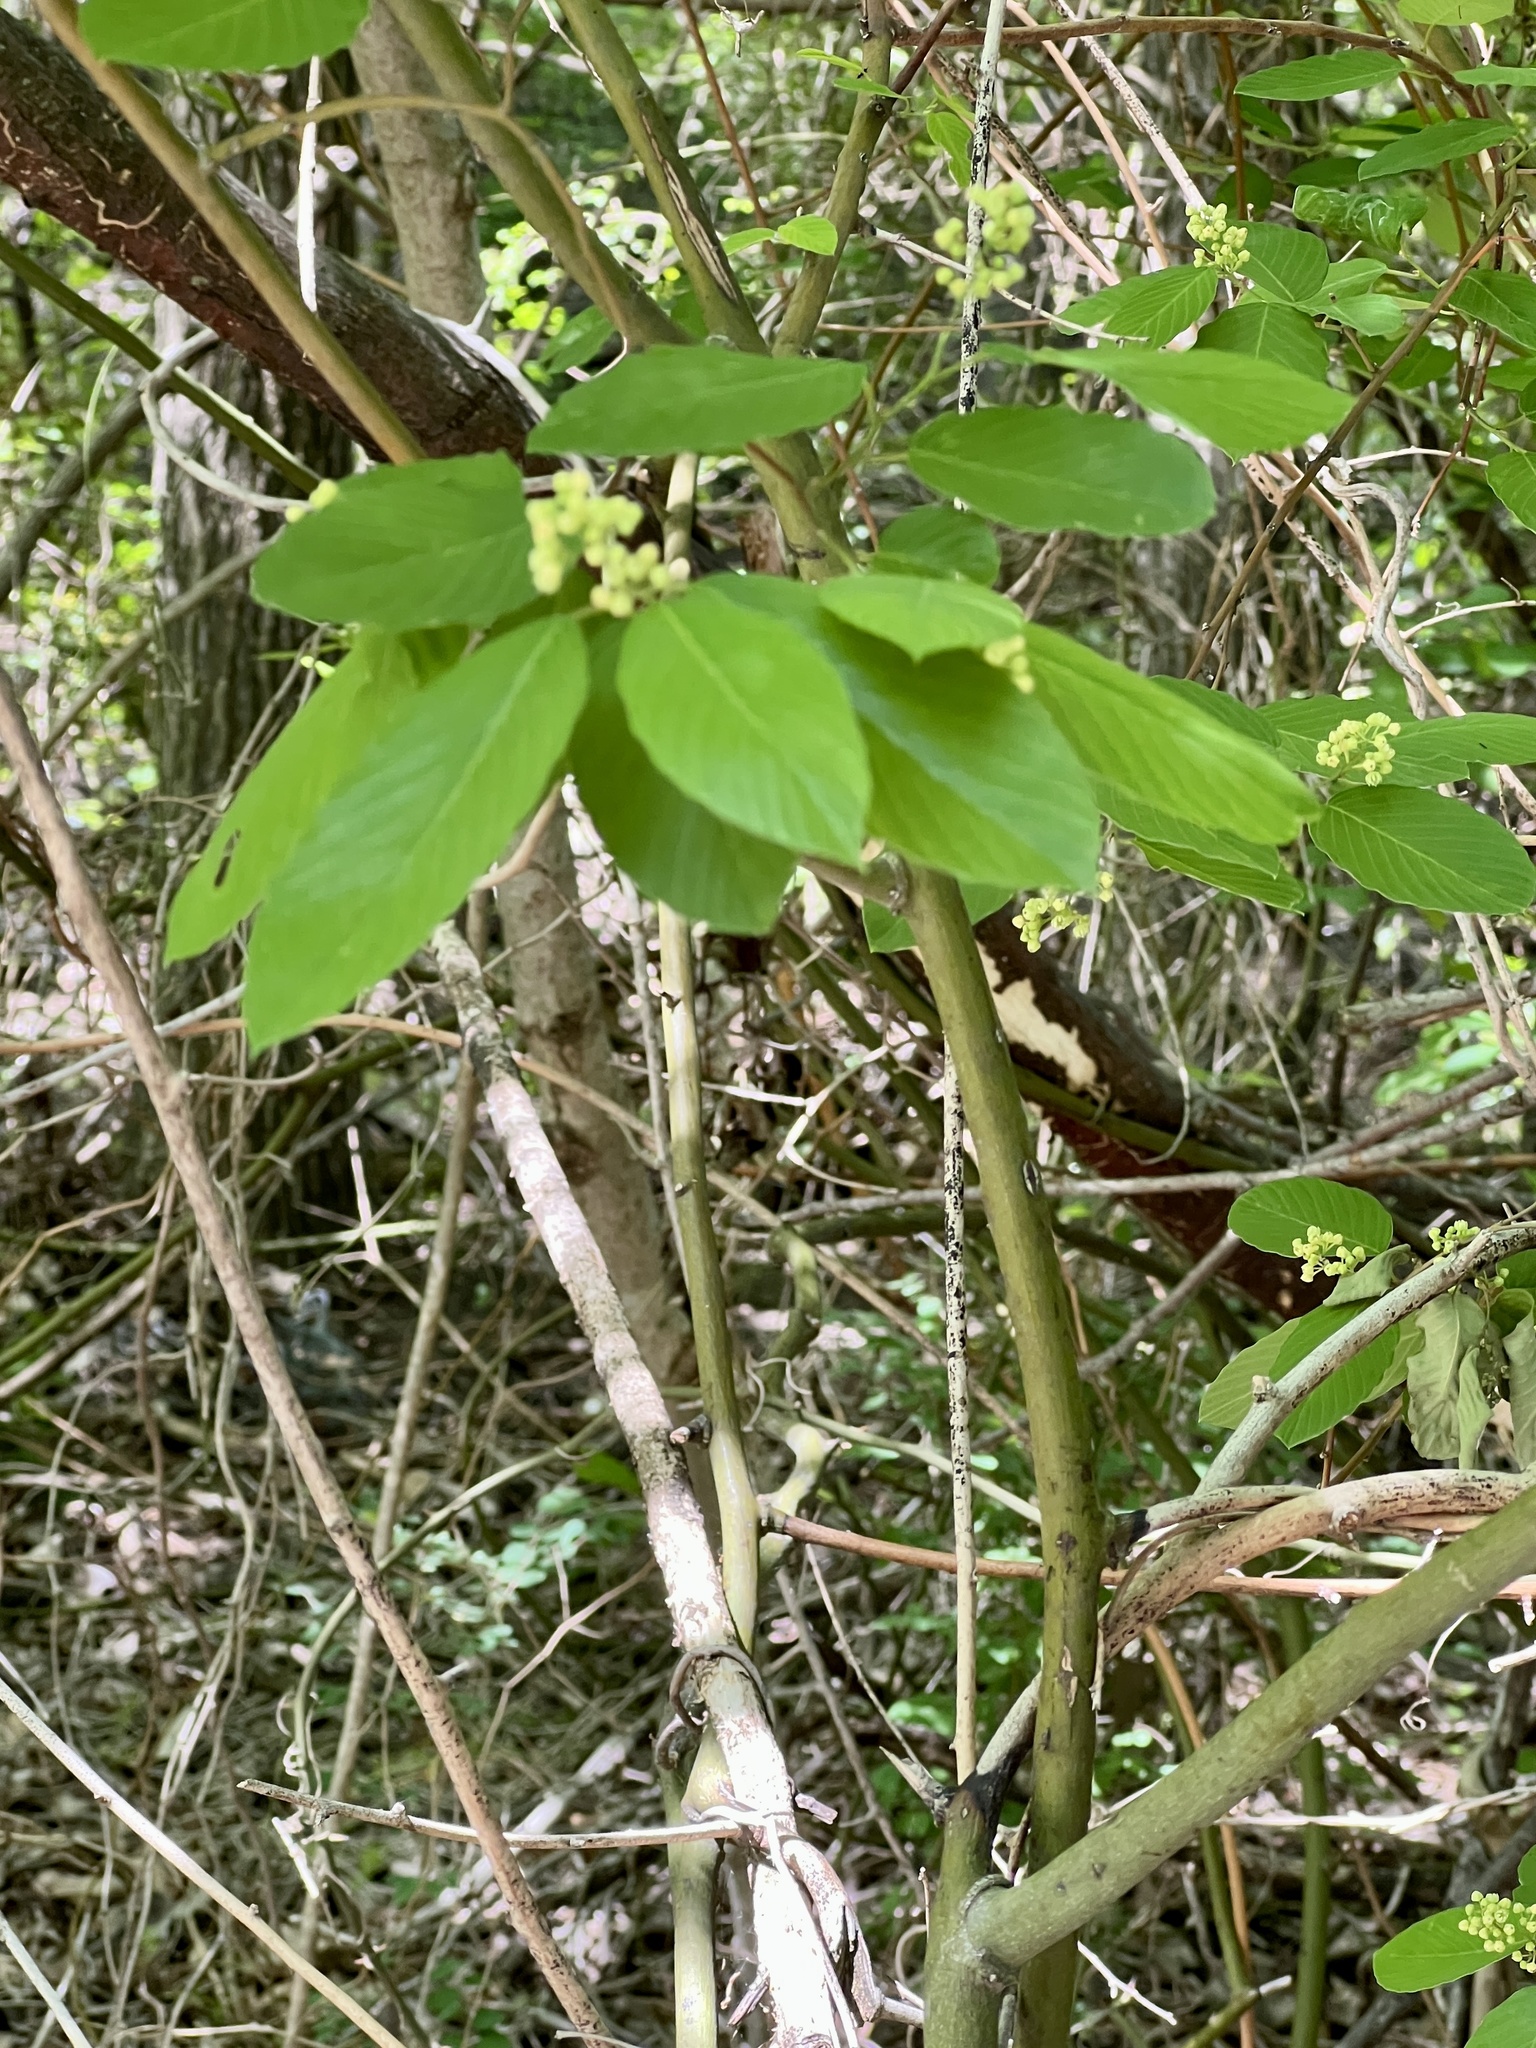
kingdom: Plantae
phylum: Tracheophyta
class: Magnoliopsida
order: Rosales
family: Rhamnaceae
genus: Berchemia
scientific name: Berchemia scandens
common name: Supplejack
